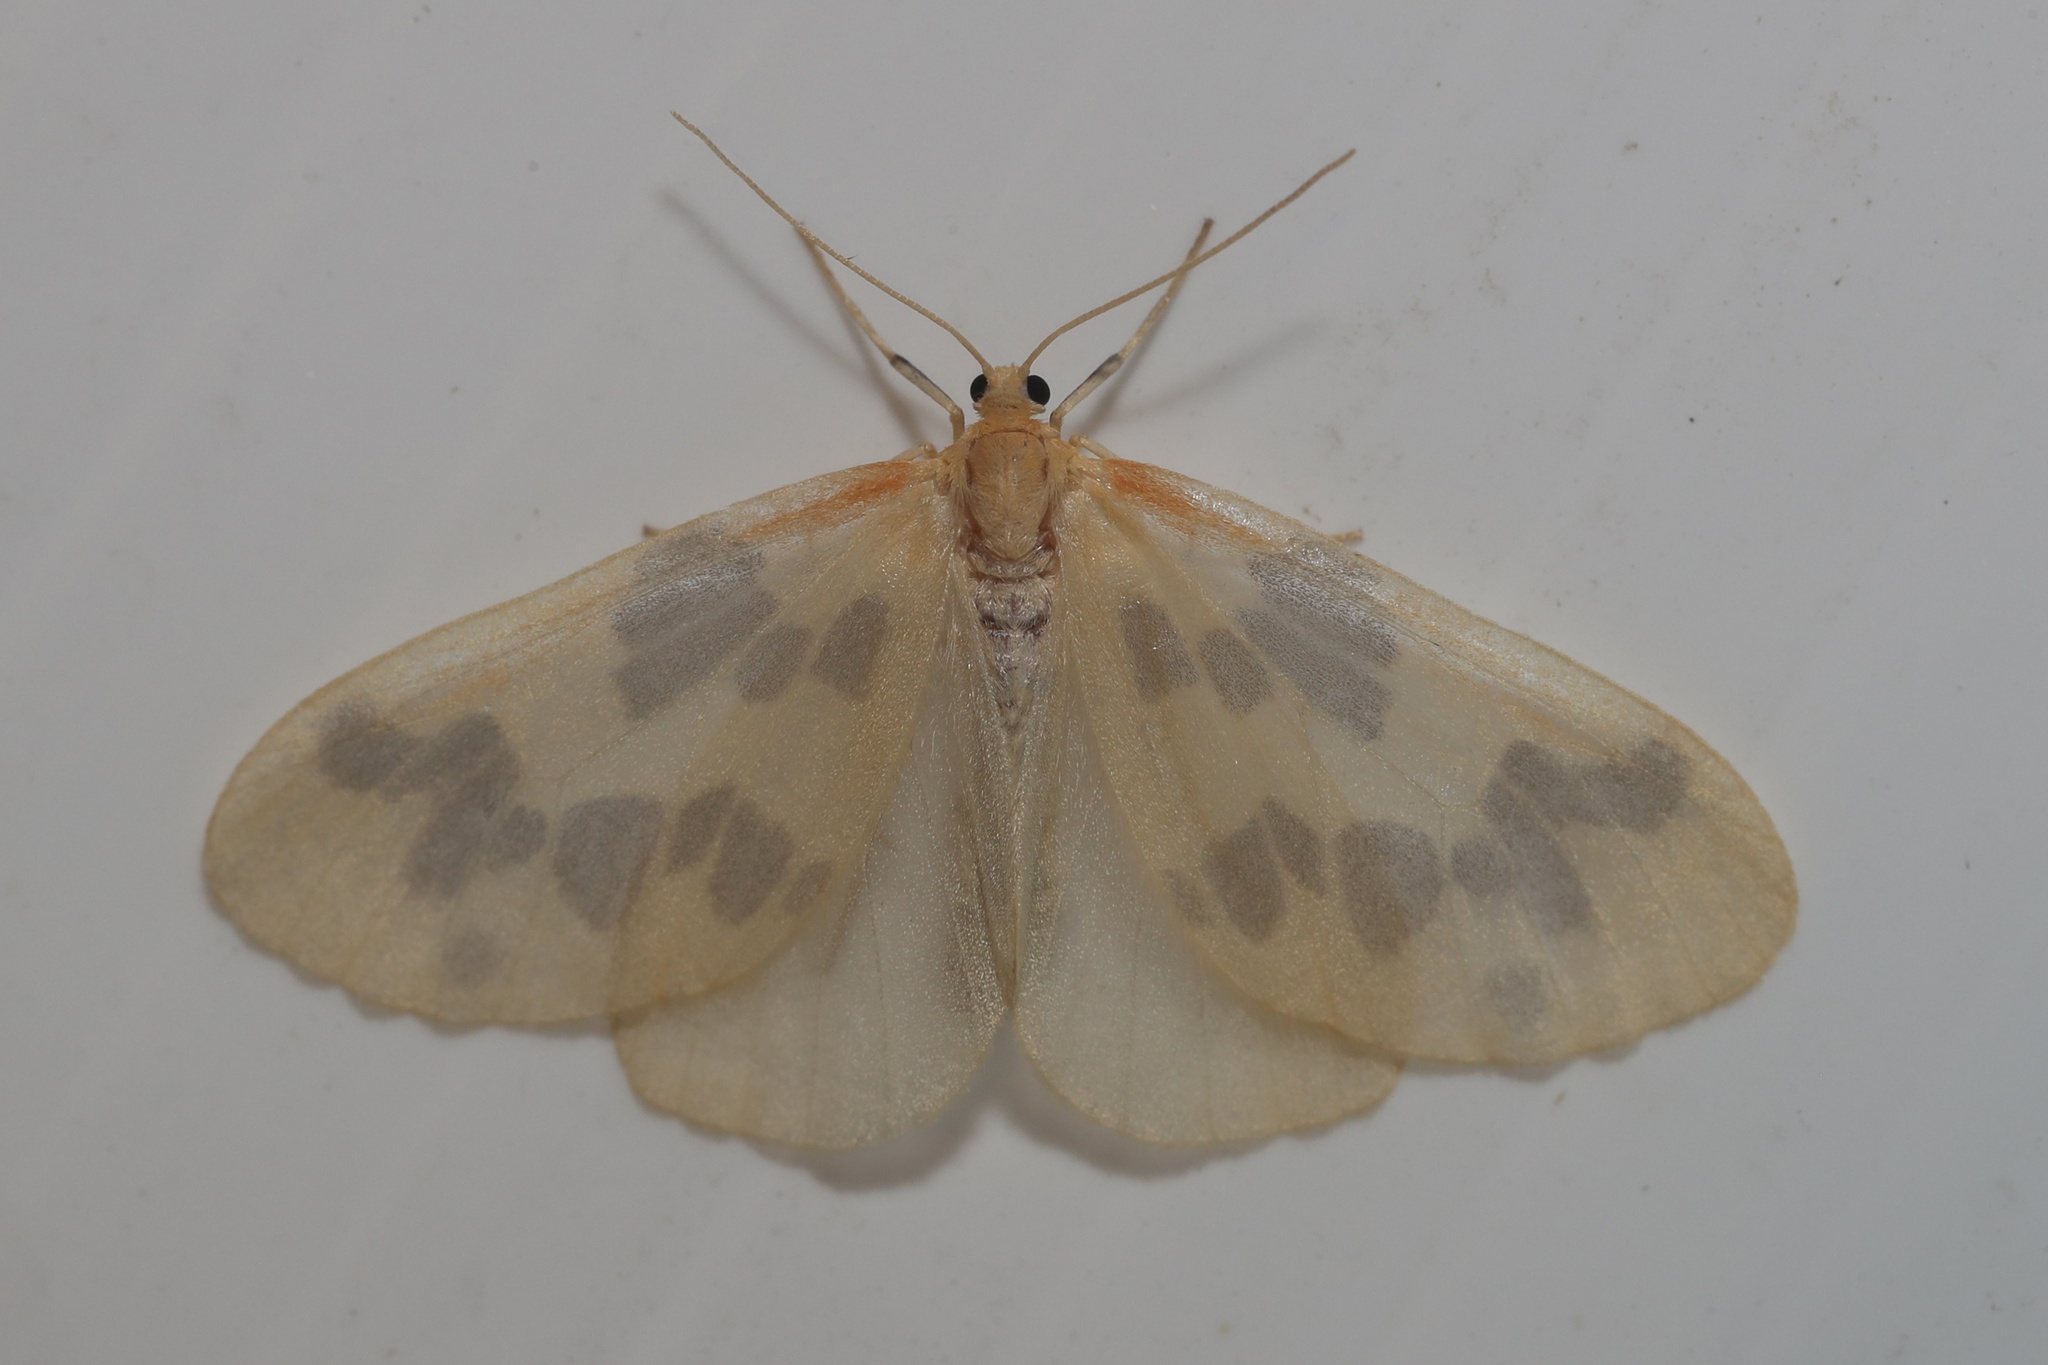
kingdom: Animalia
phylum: Arthropoda
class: Insecta
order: Lepidoptera
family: Geometridae
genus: Eubaphe
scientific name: Eubaphe mendica
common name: Beggar
